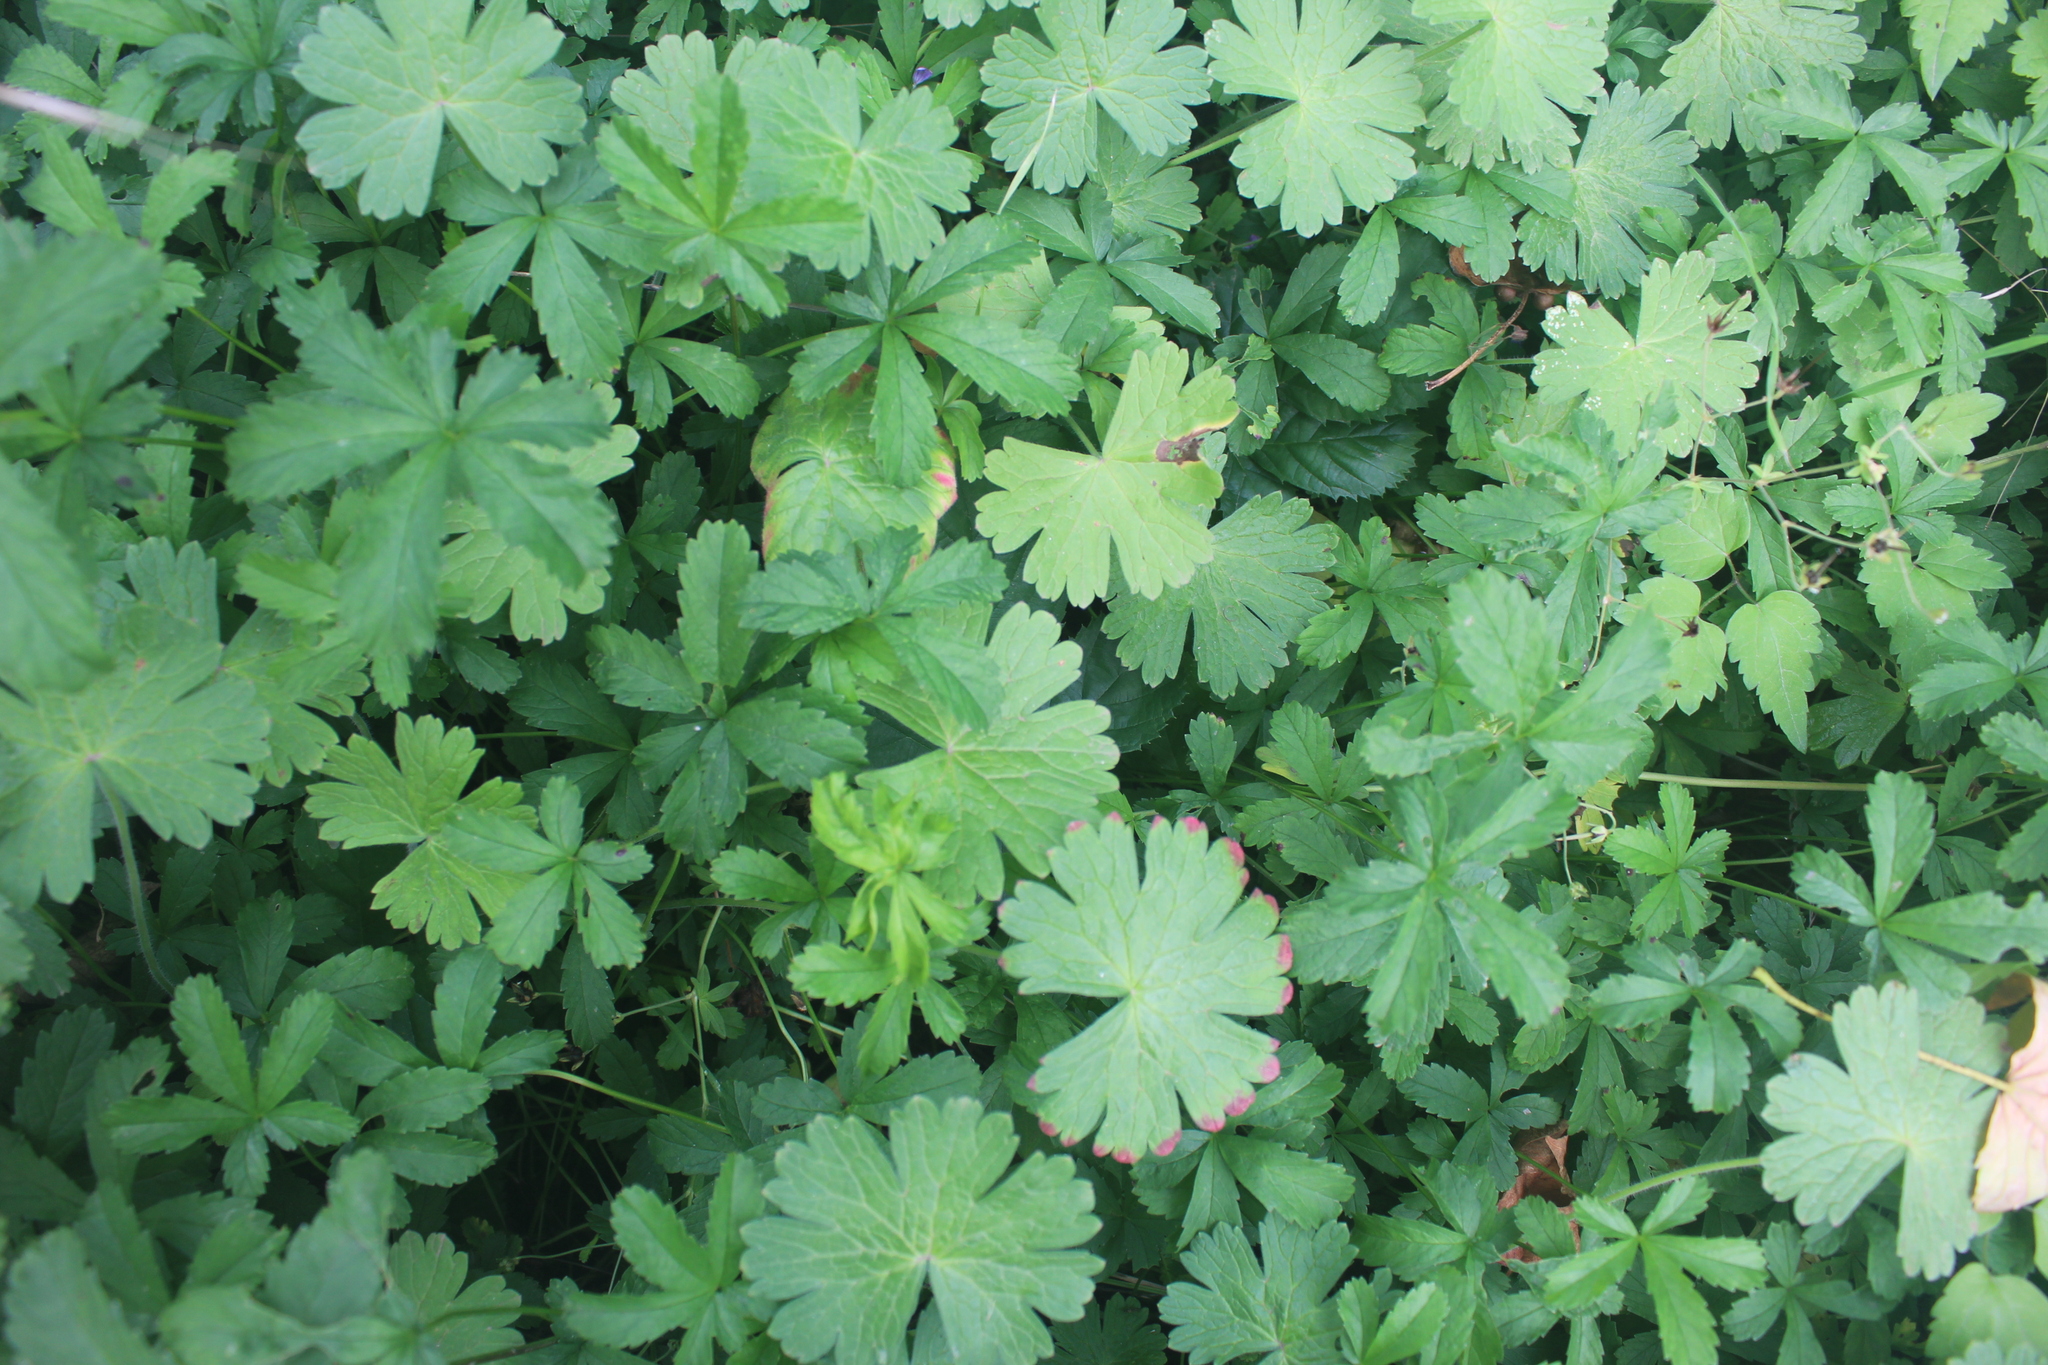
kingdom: Plantae
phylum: Tracheophyta
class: Magnoliopsida
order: Geraniales
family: Geraniaceae
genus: Geranium
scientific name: Geranium pyrenaicum
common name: Hedgerow crane's-bill
